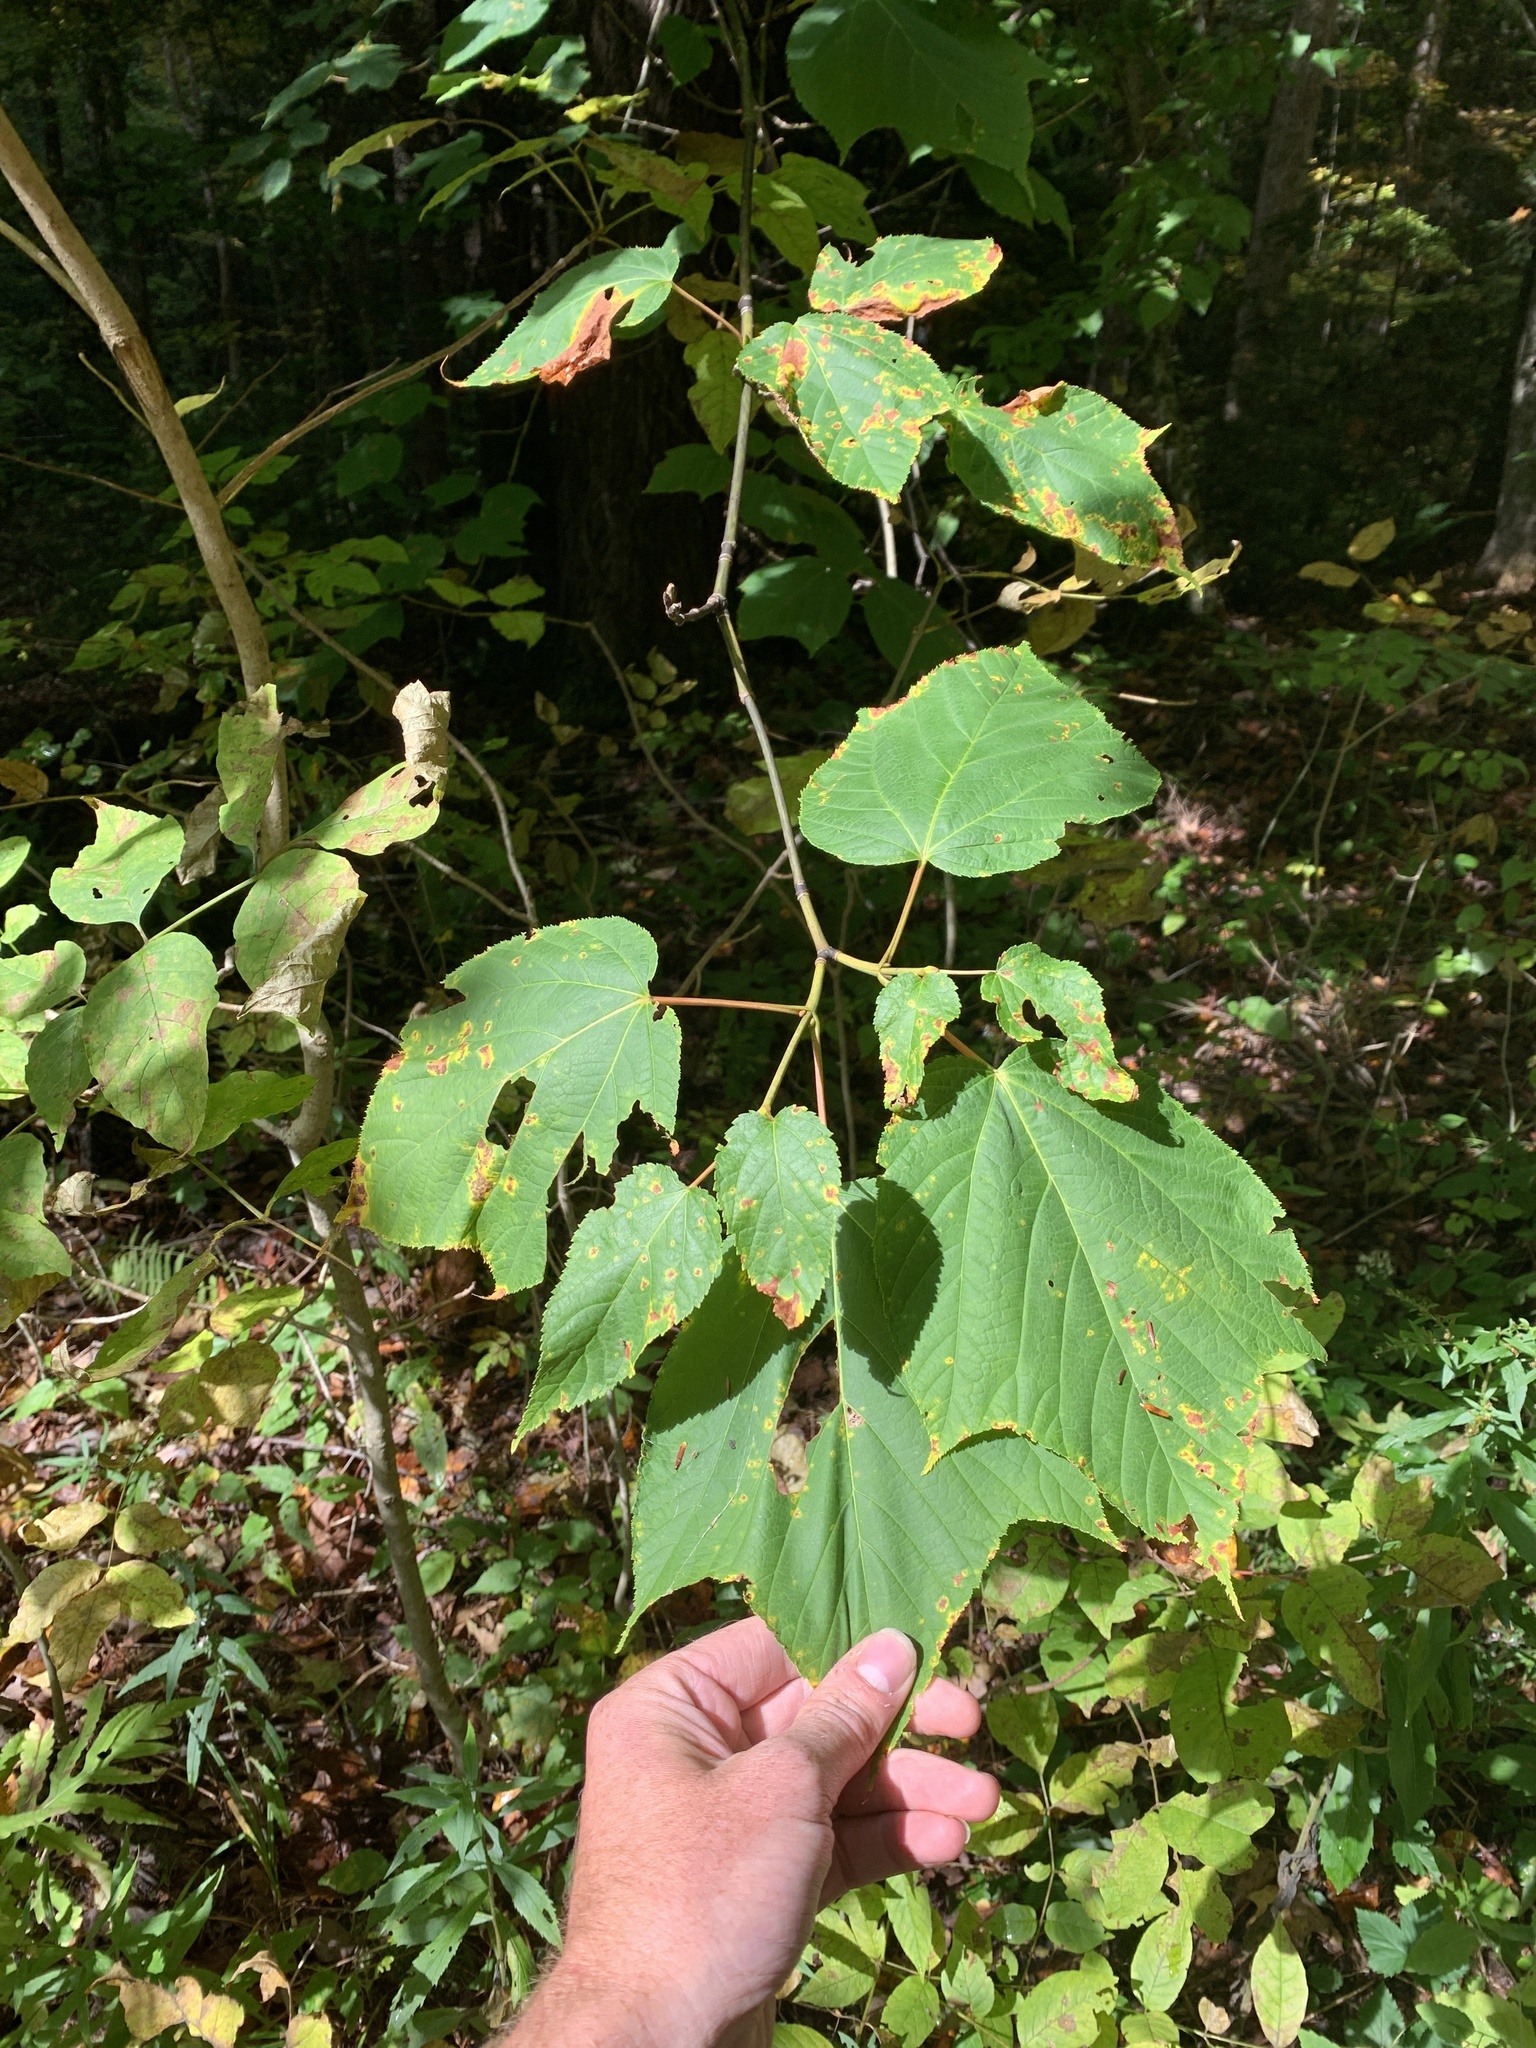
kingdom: Plantae
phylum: Tracheophyta
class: Magnoliopsida
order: Sapindales
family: Sapindaceae
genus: Acer
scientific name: Acer pensylvanicum
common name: Moosewood
